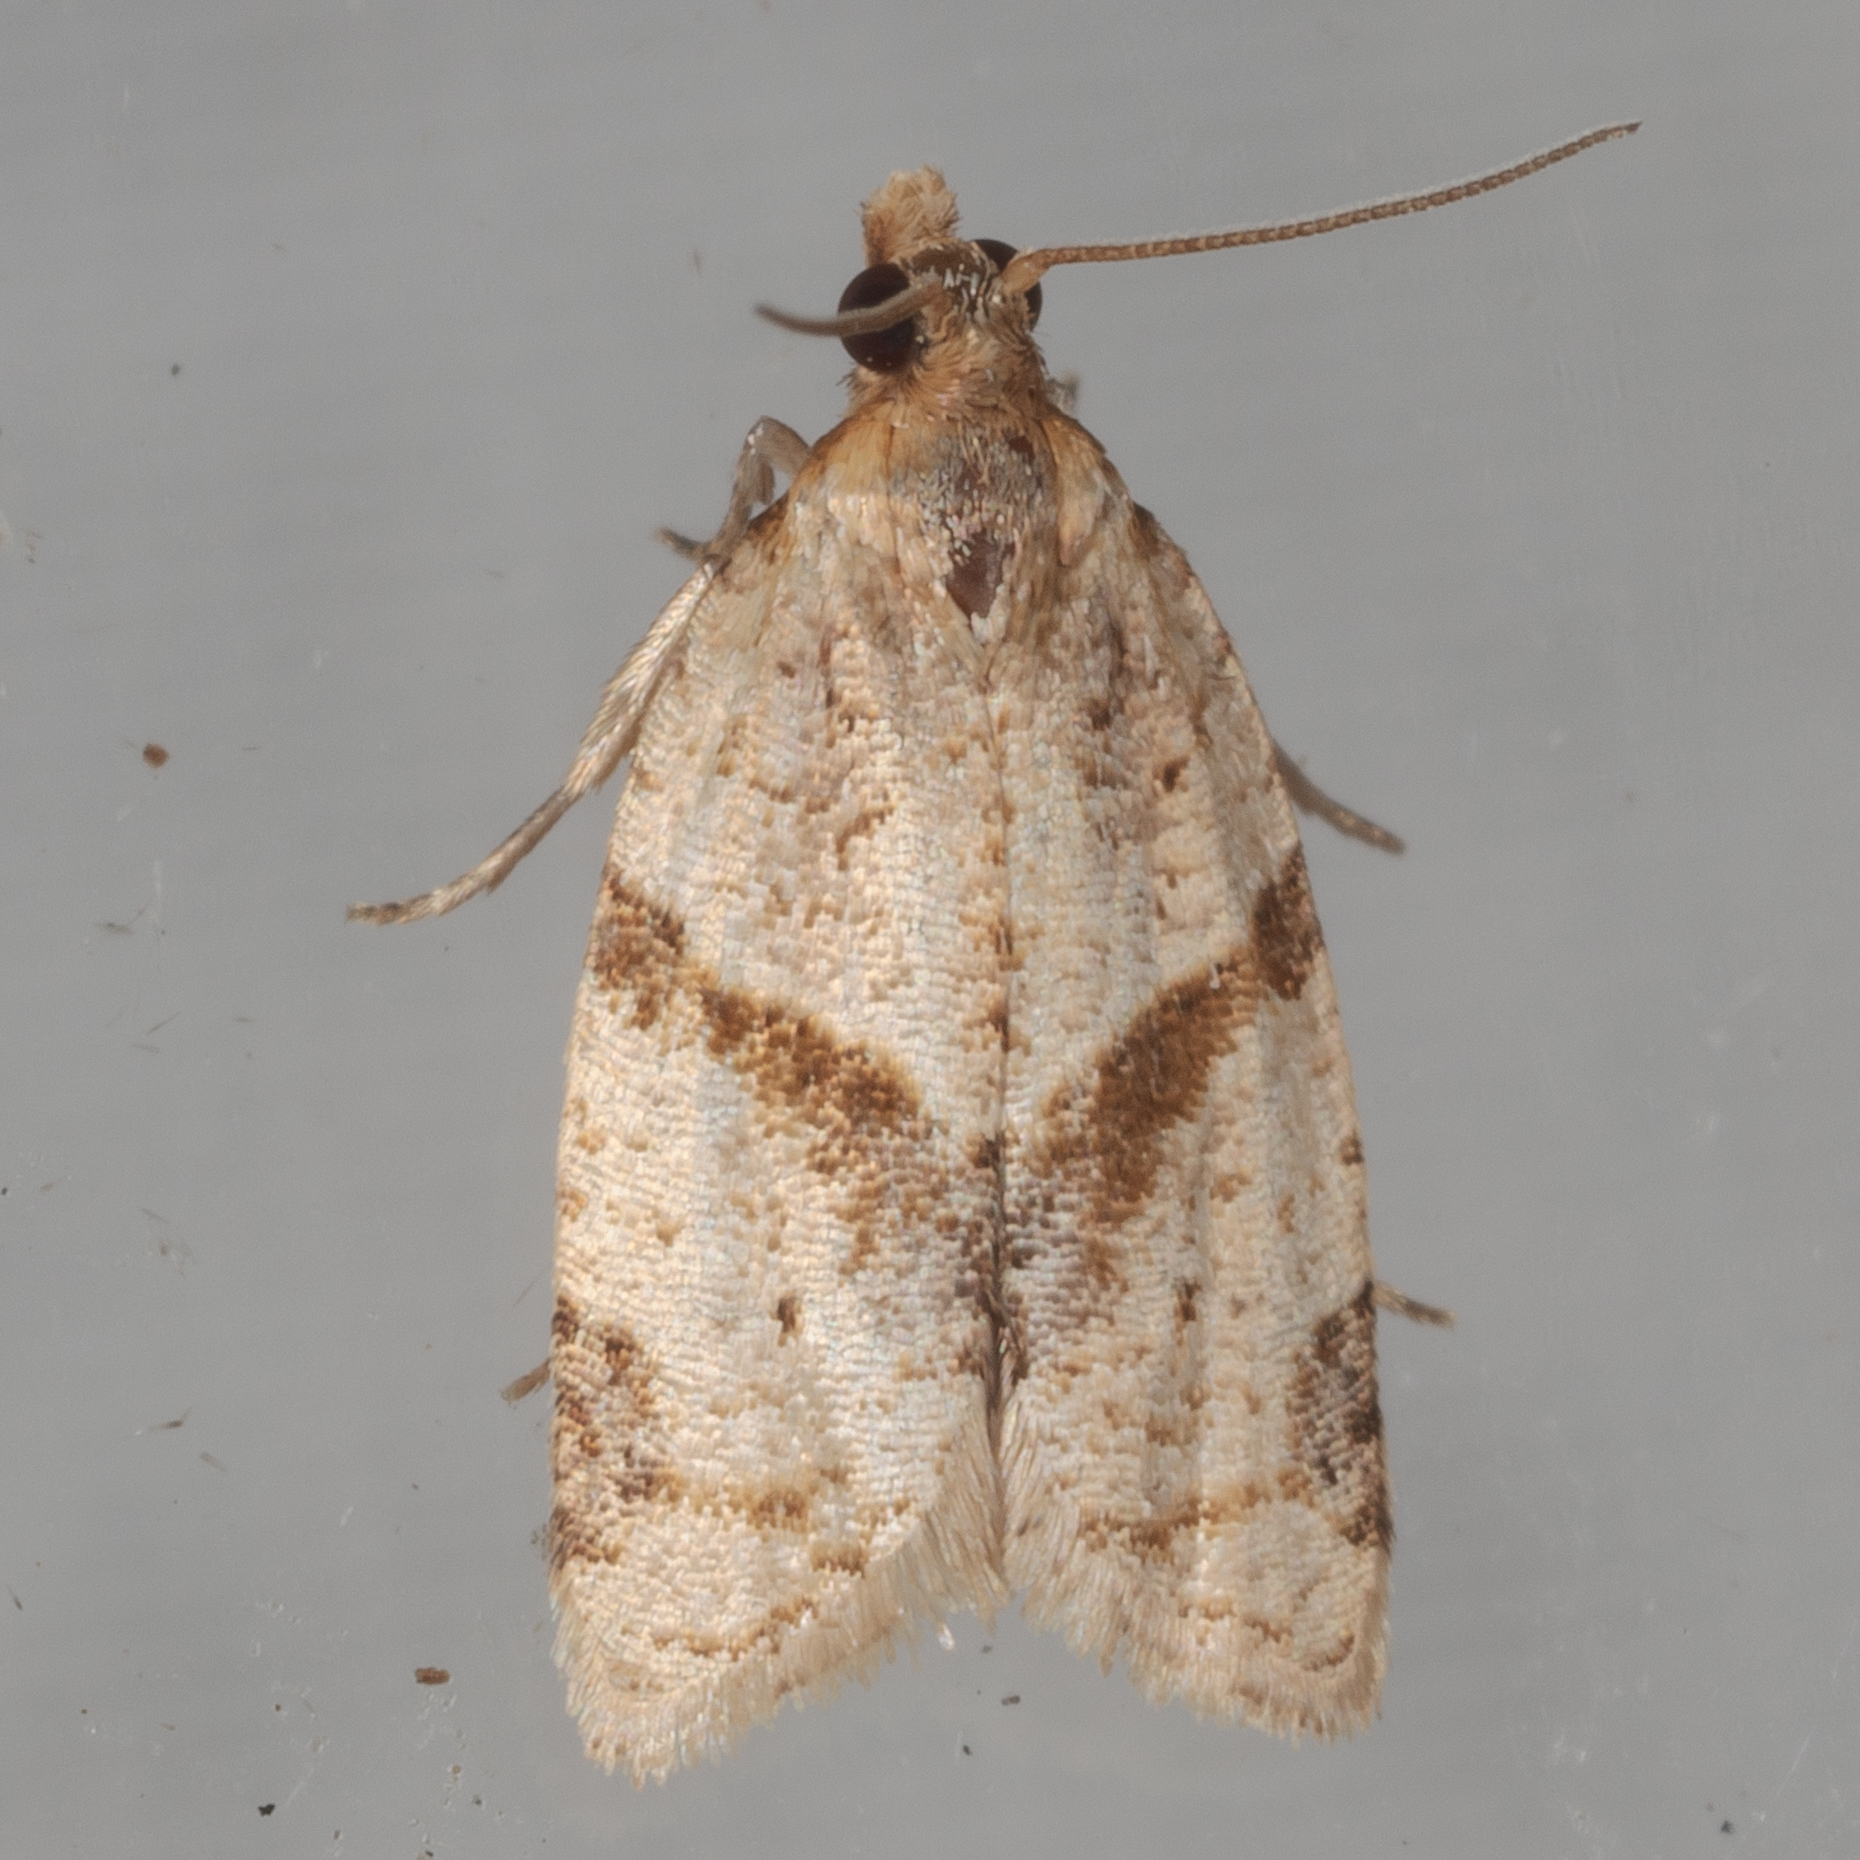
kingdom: Animalia
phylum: Arthropoda
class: Insecta
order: Lepidoptera
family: Tortricidae
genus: Clepsis
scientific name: Clepsis peritana
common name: Garden tortrix
